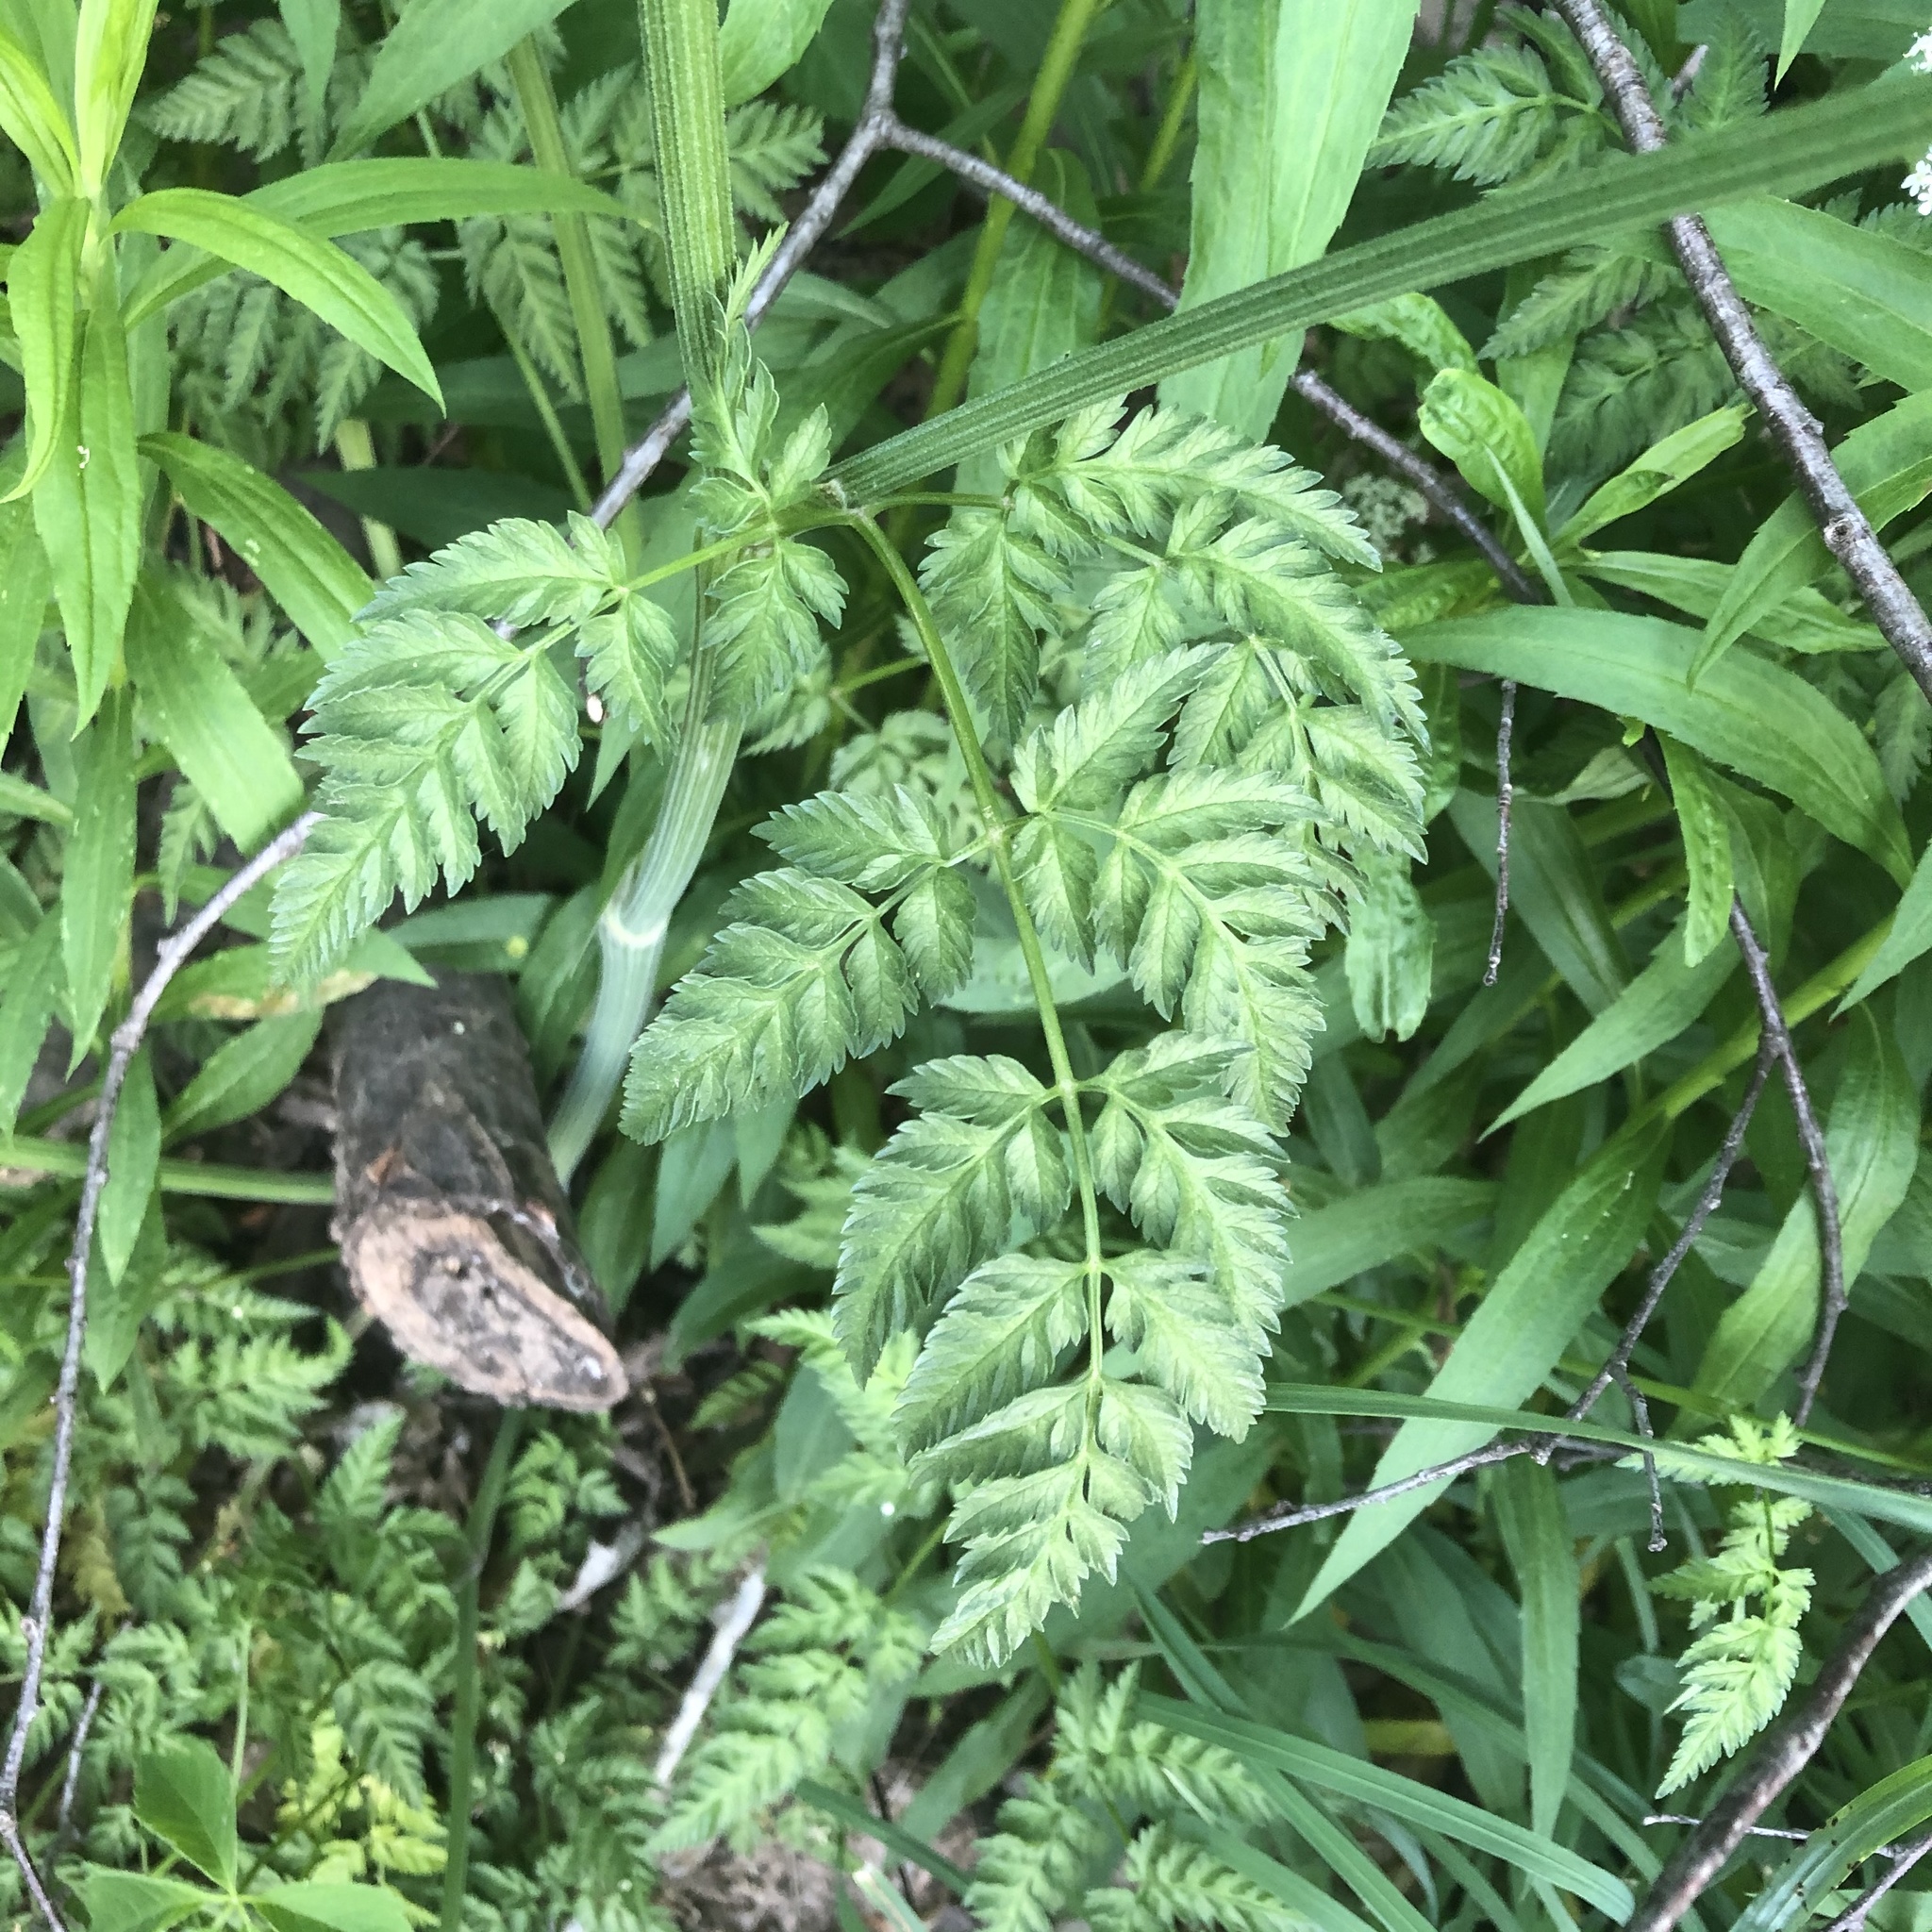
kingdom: Plantae
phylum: Tracheophyta
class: Magnoliopsida
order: Apiales
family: Apiaceae
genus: Anthriscus
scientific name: Anthriscus sylvestris
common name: Cow parsley
